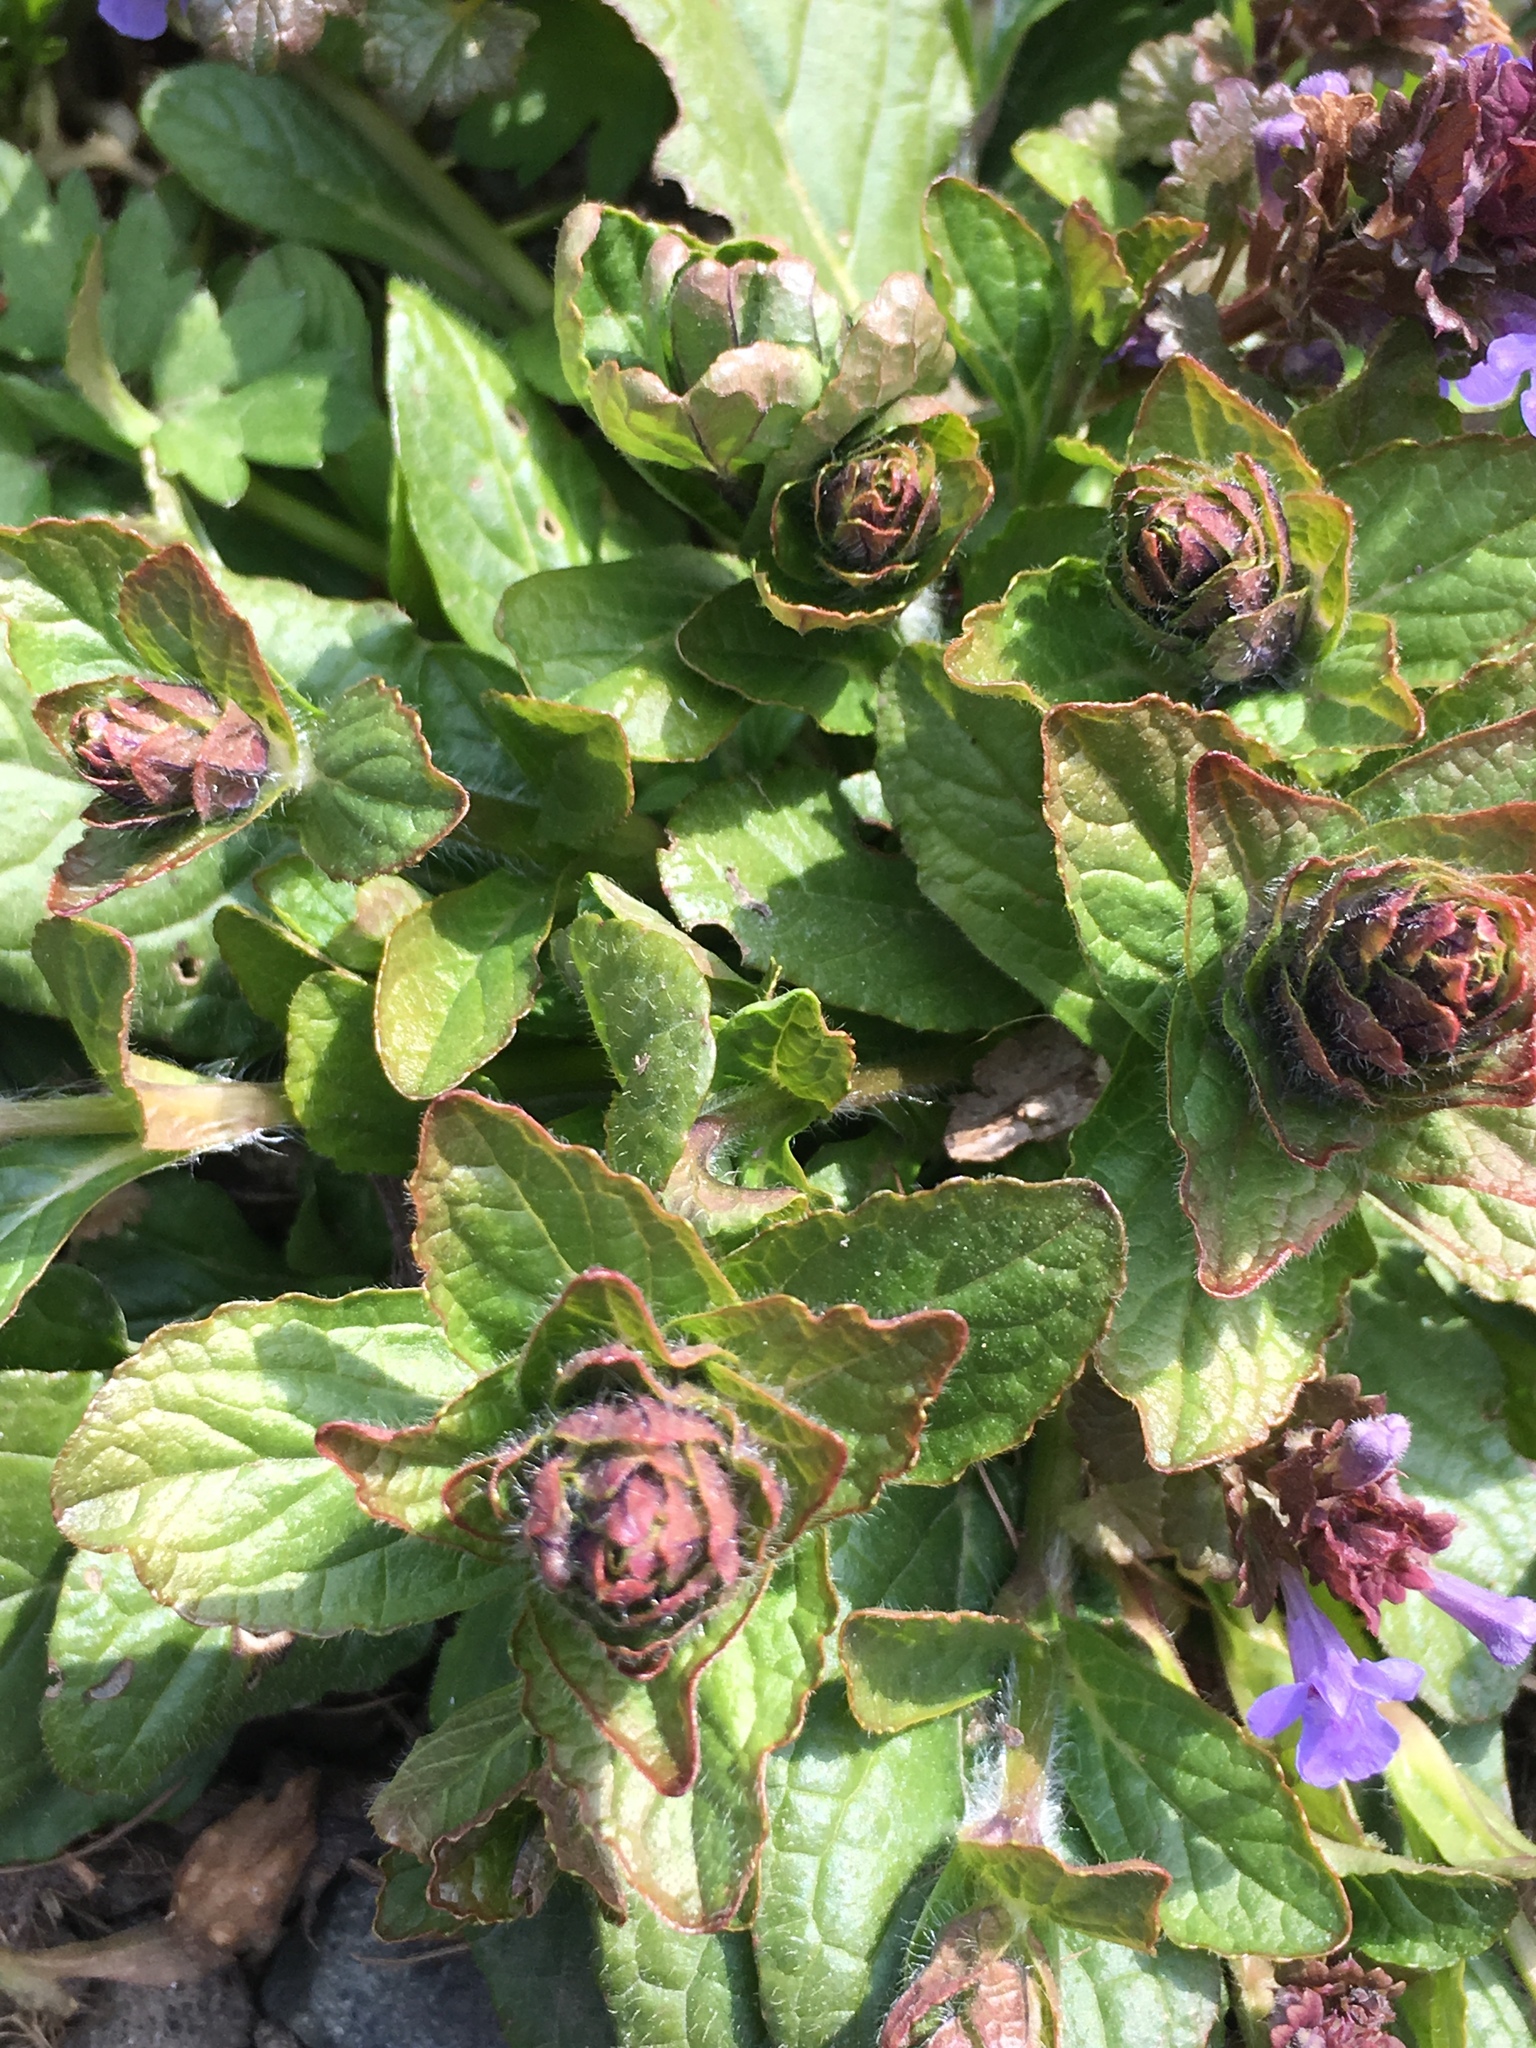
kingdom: Plantae
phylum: Tracheophyta
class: Magnoliopsida
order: Lamiales
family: Lamiaceae
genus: Ajuga
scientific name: Ajuga reptans
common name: Bugle
